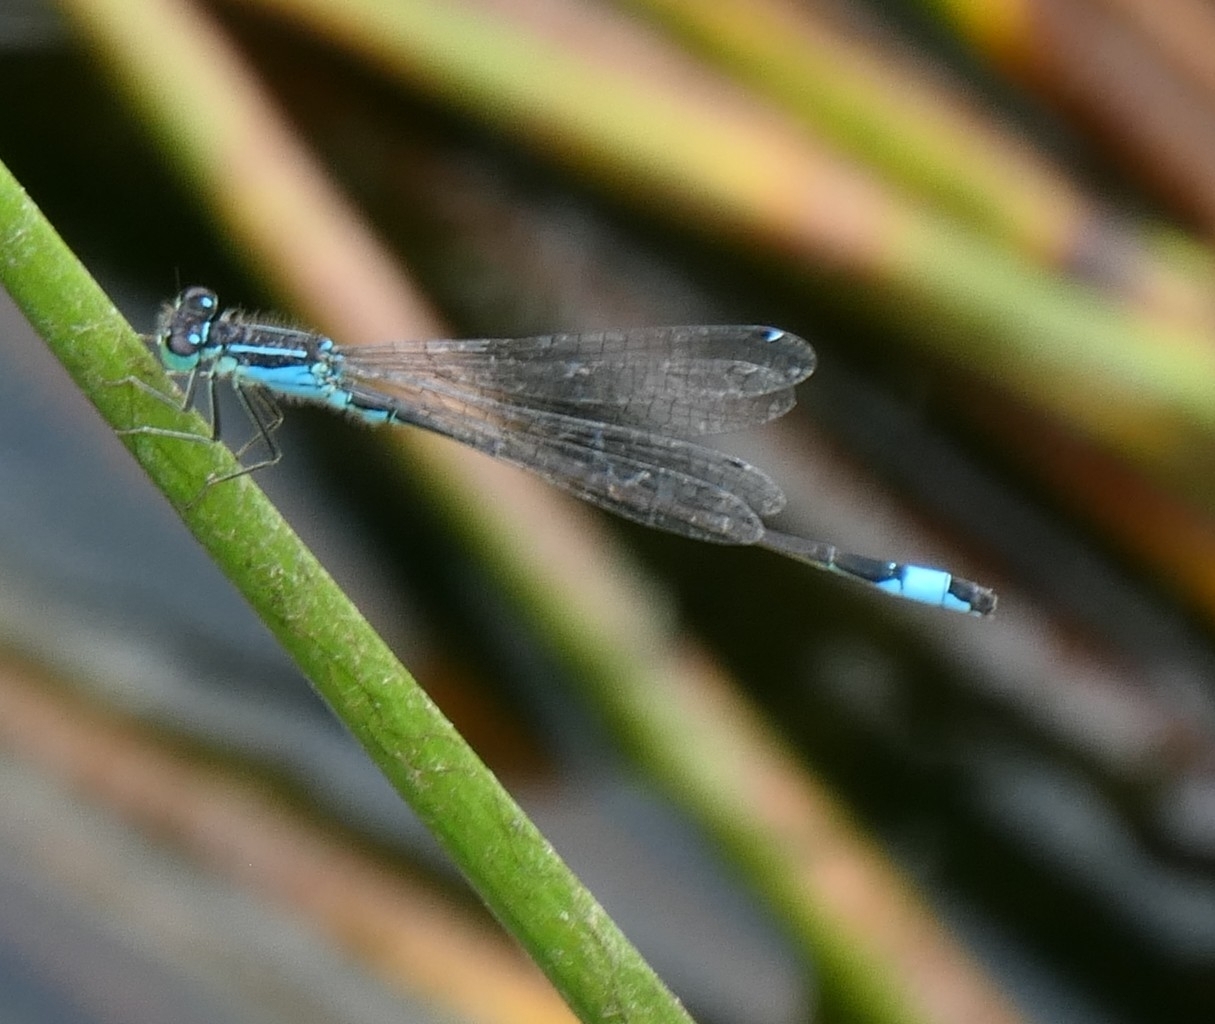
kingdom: Animalia
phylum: Arthropoda
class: Insecta
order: Odonata
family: Coenagrionidae
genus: Ischnura
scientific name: Ischnura elegans
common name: Blue-tailed damselfly
